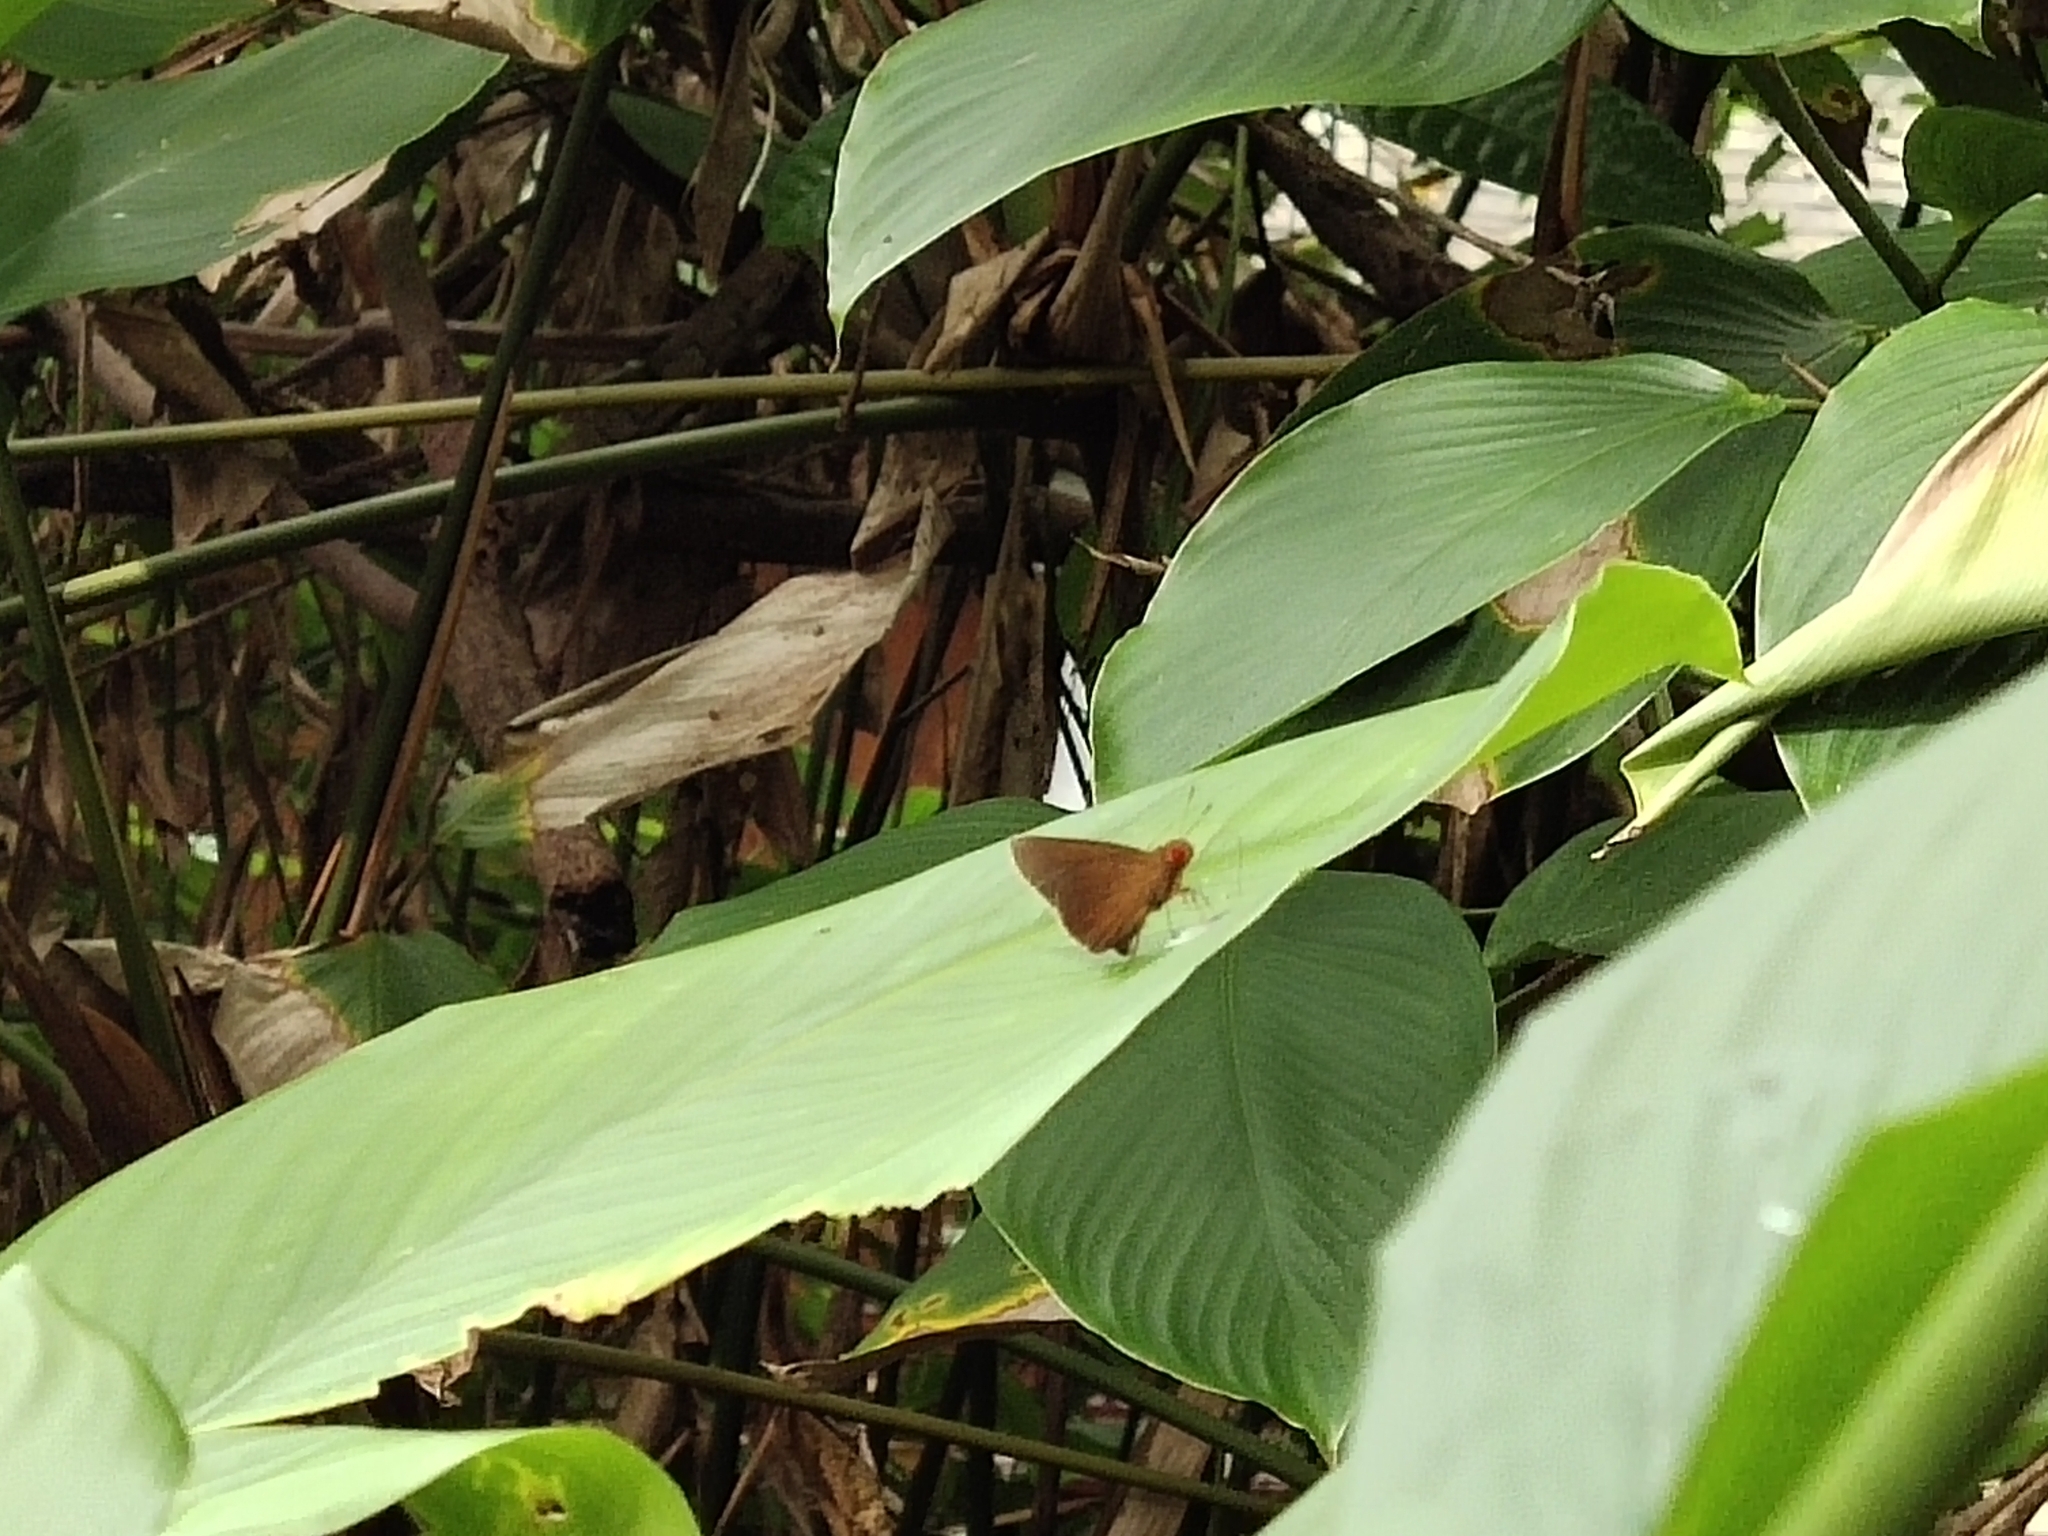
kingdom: Animalia
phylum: Arthropoda
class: Insecta
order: Lepidoptera
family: Hesperiidae
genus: Matapa
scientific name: Matapa aria
